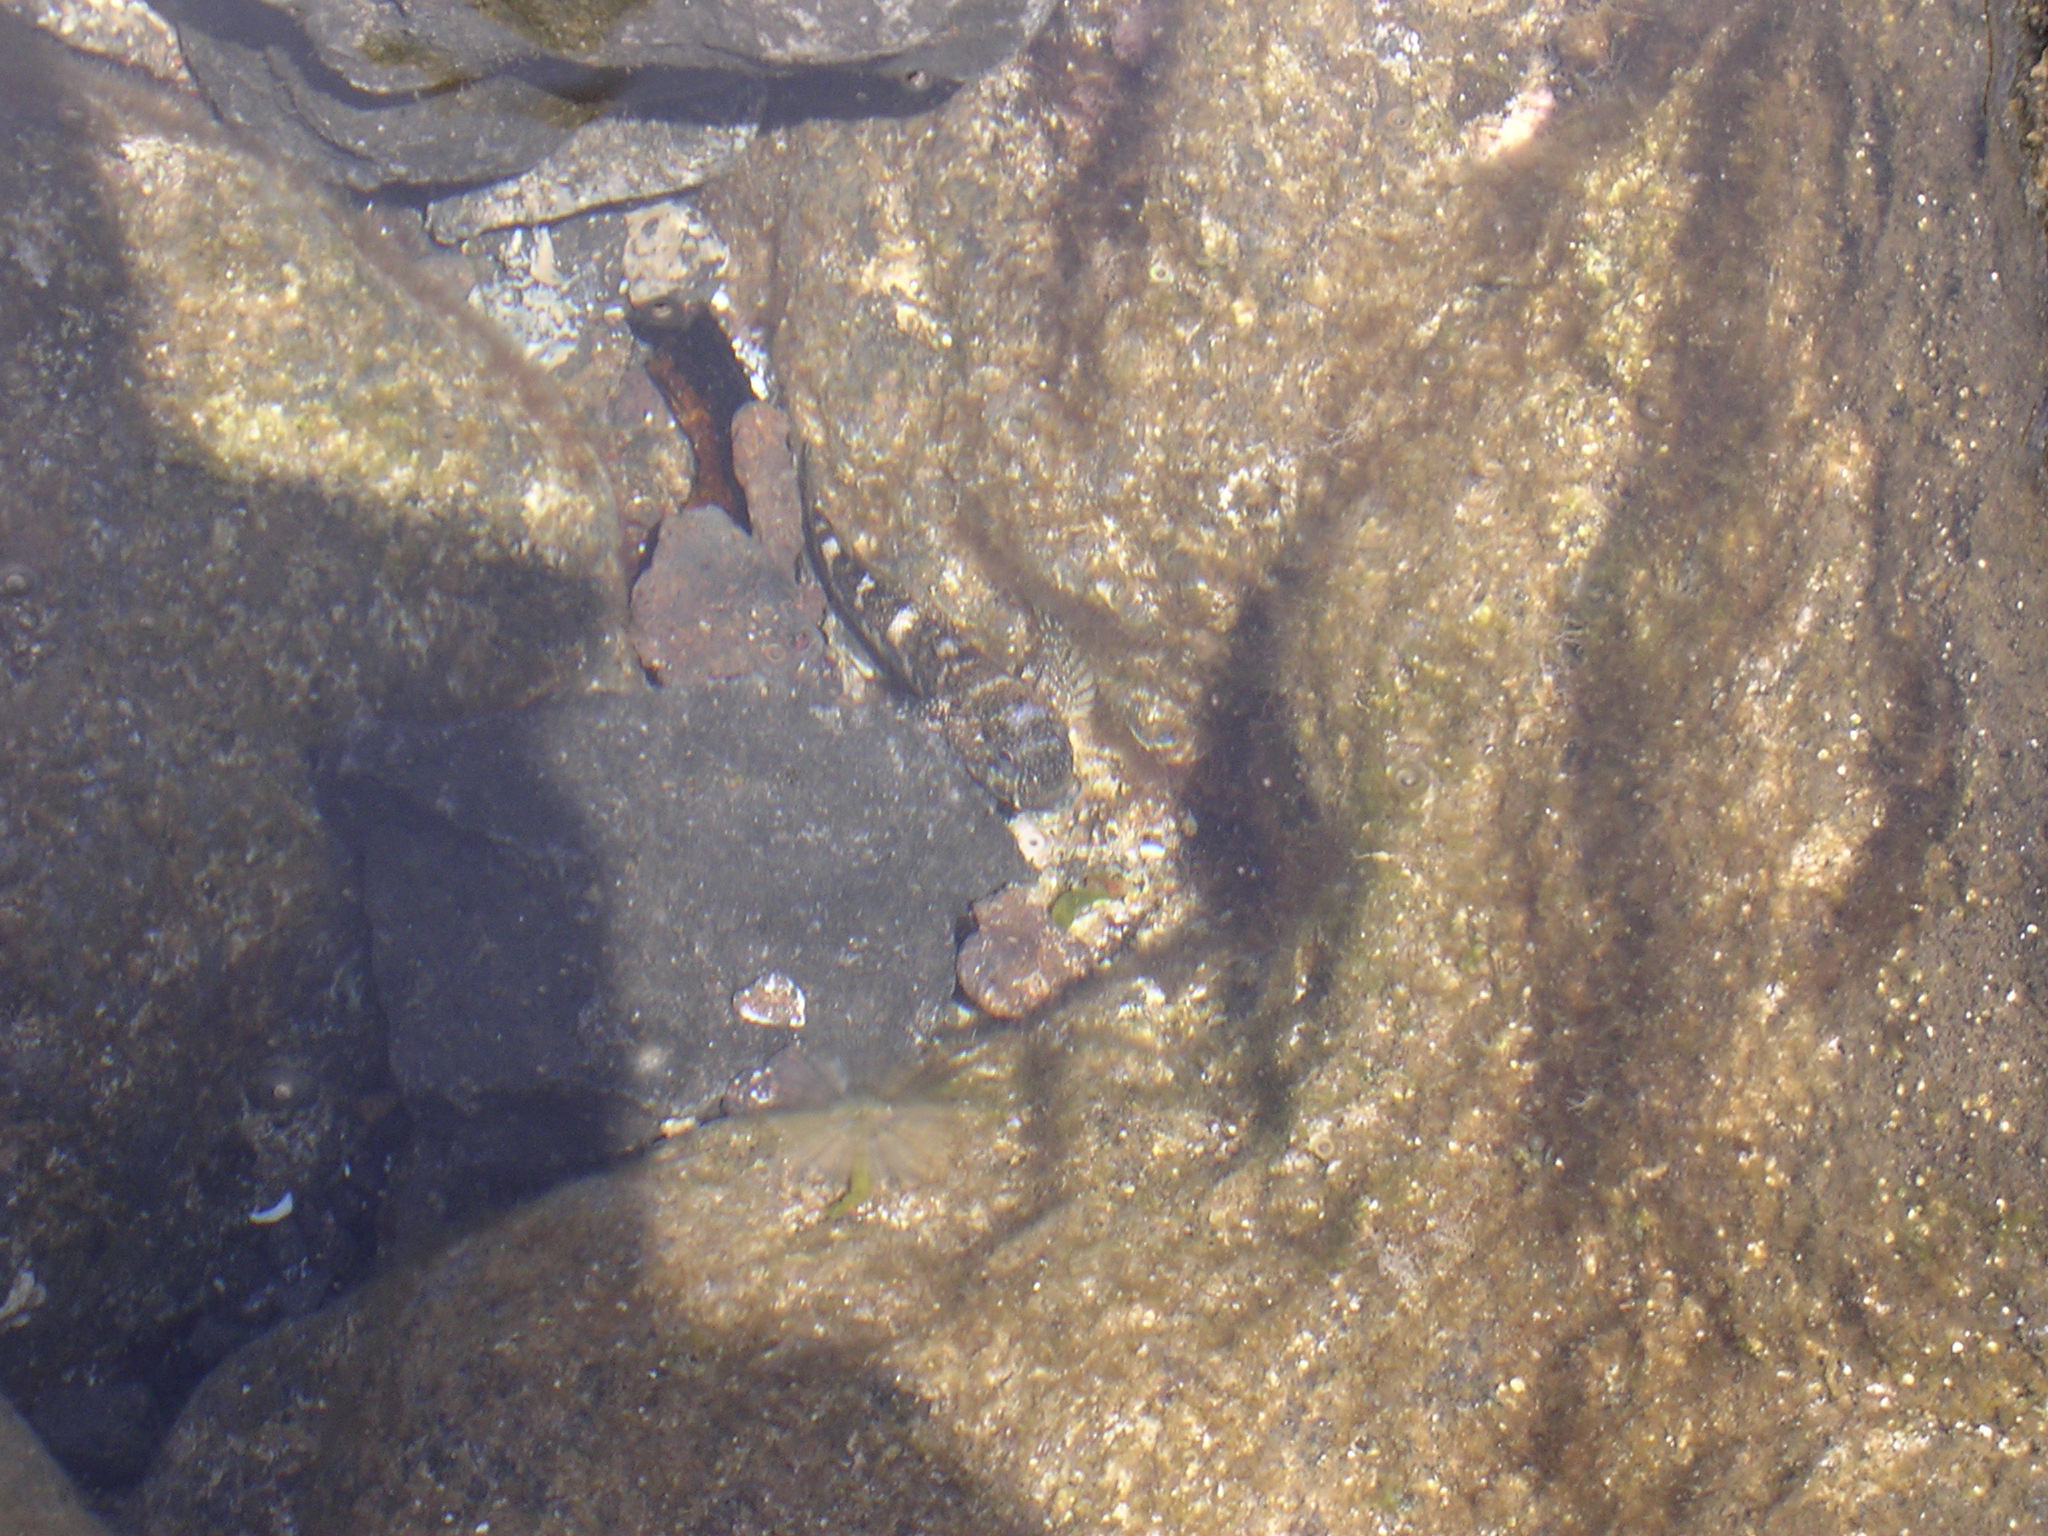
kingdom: Animalia
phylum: Chordata
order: Perciformes
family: Gobiidae
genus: Mauligobius
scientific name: Mauligobius maderensis
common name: Rock goby
